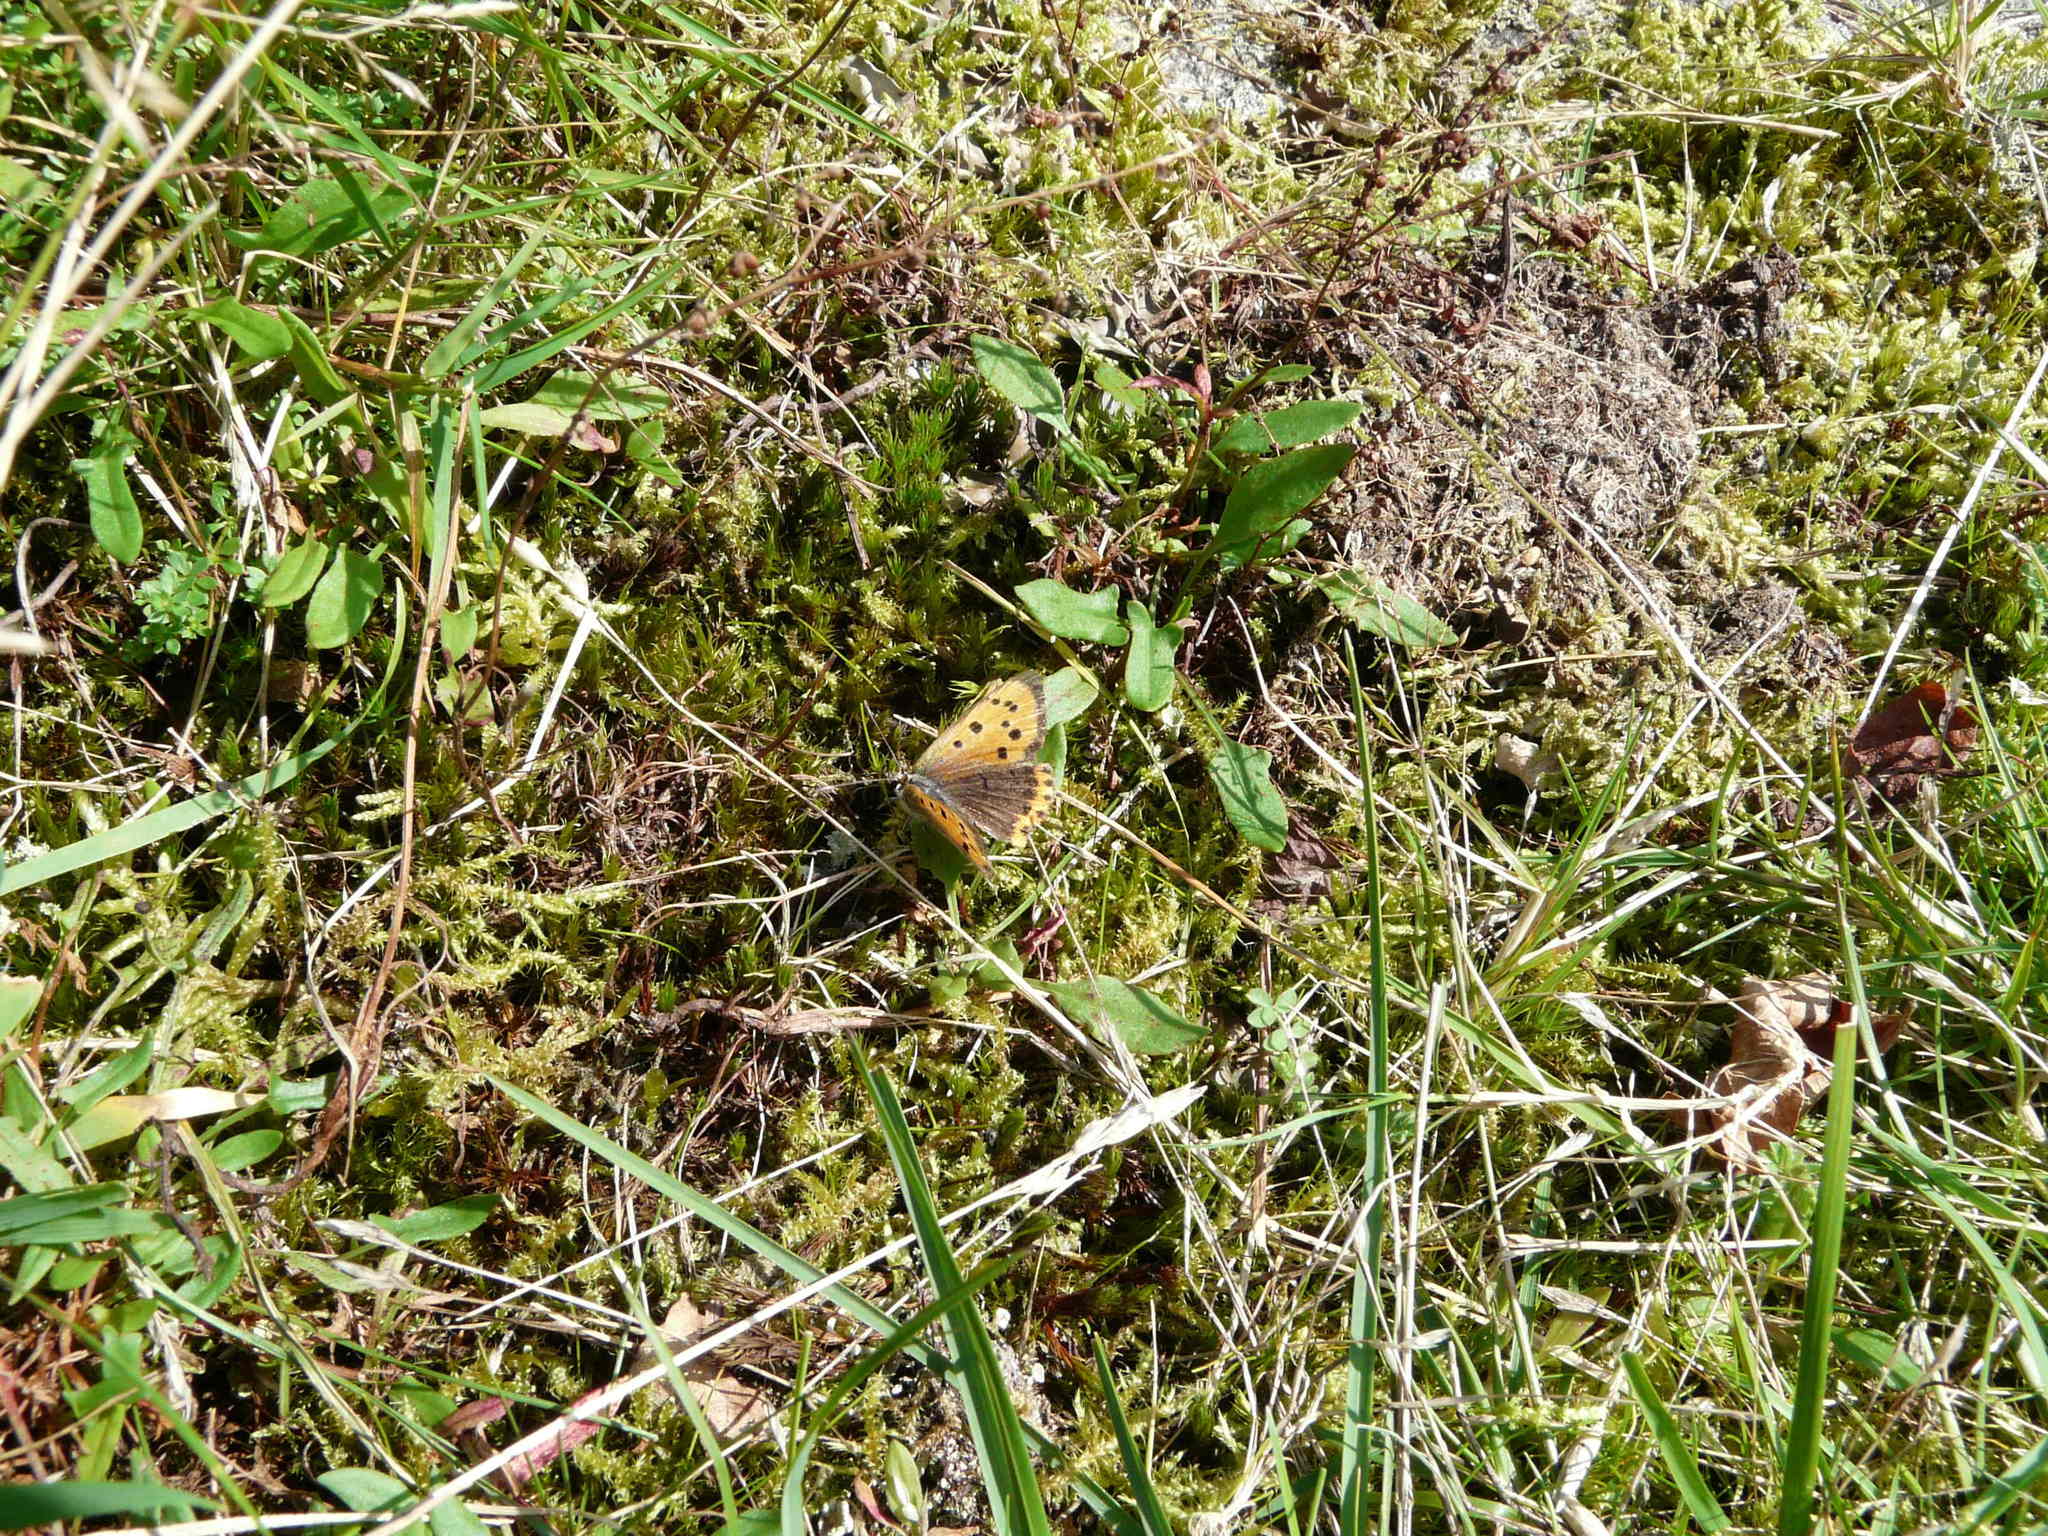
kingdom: Animalia
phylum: Arthropoda
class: Insecta
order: Lepidoptera
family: Lycaenidae
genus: Lycaena
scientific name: Lycaena phlaeas
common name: Small copper
